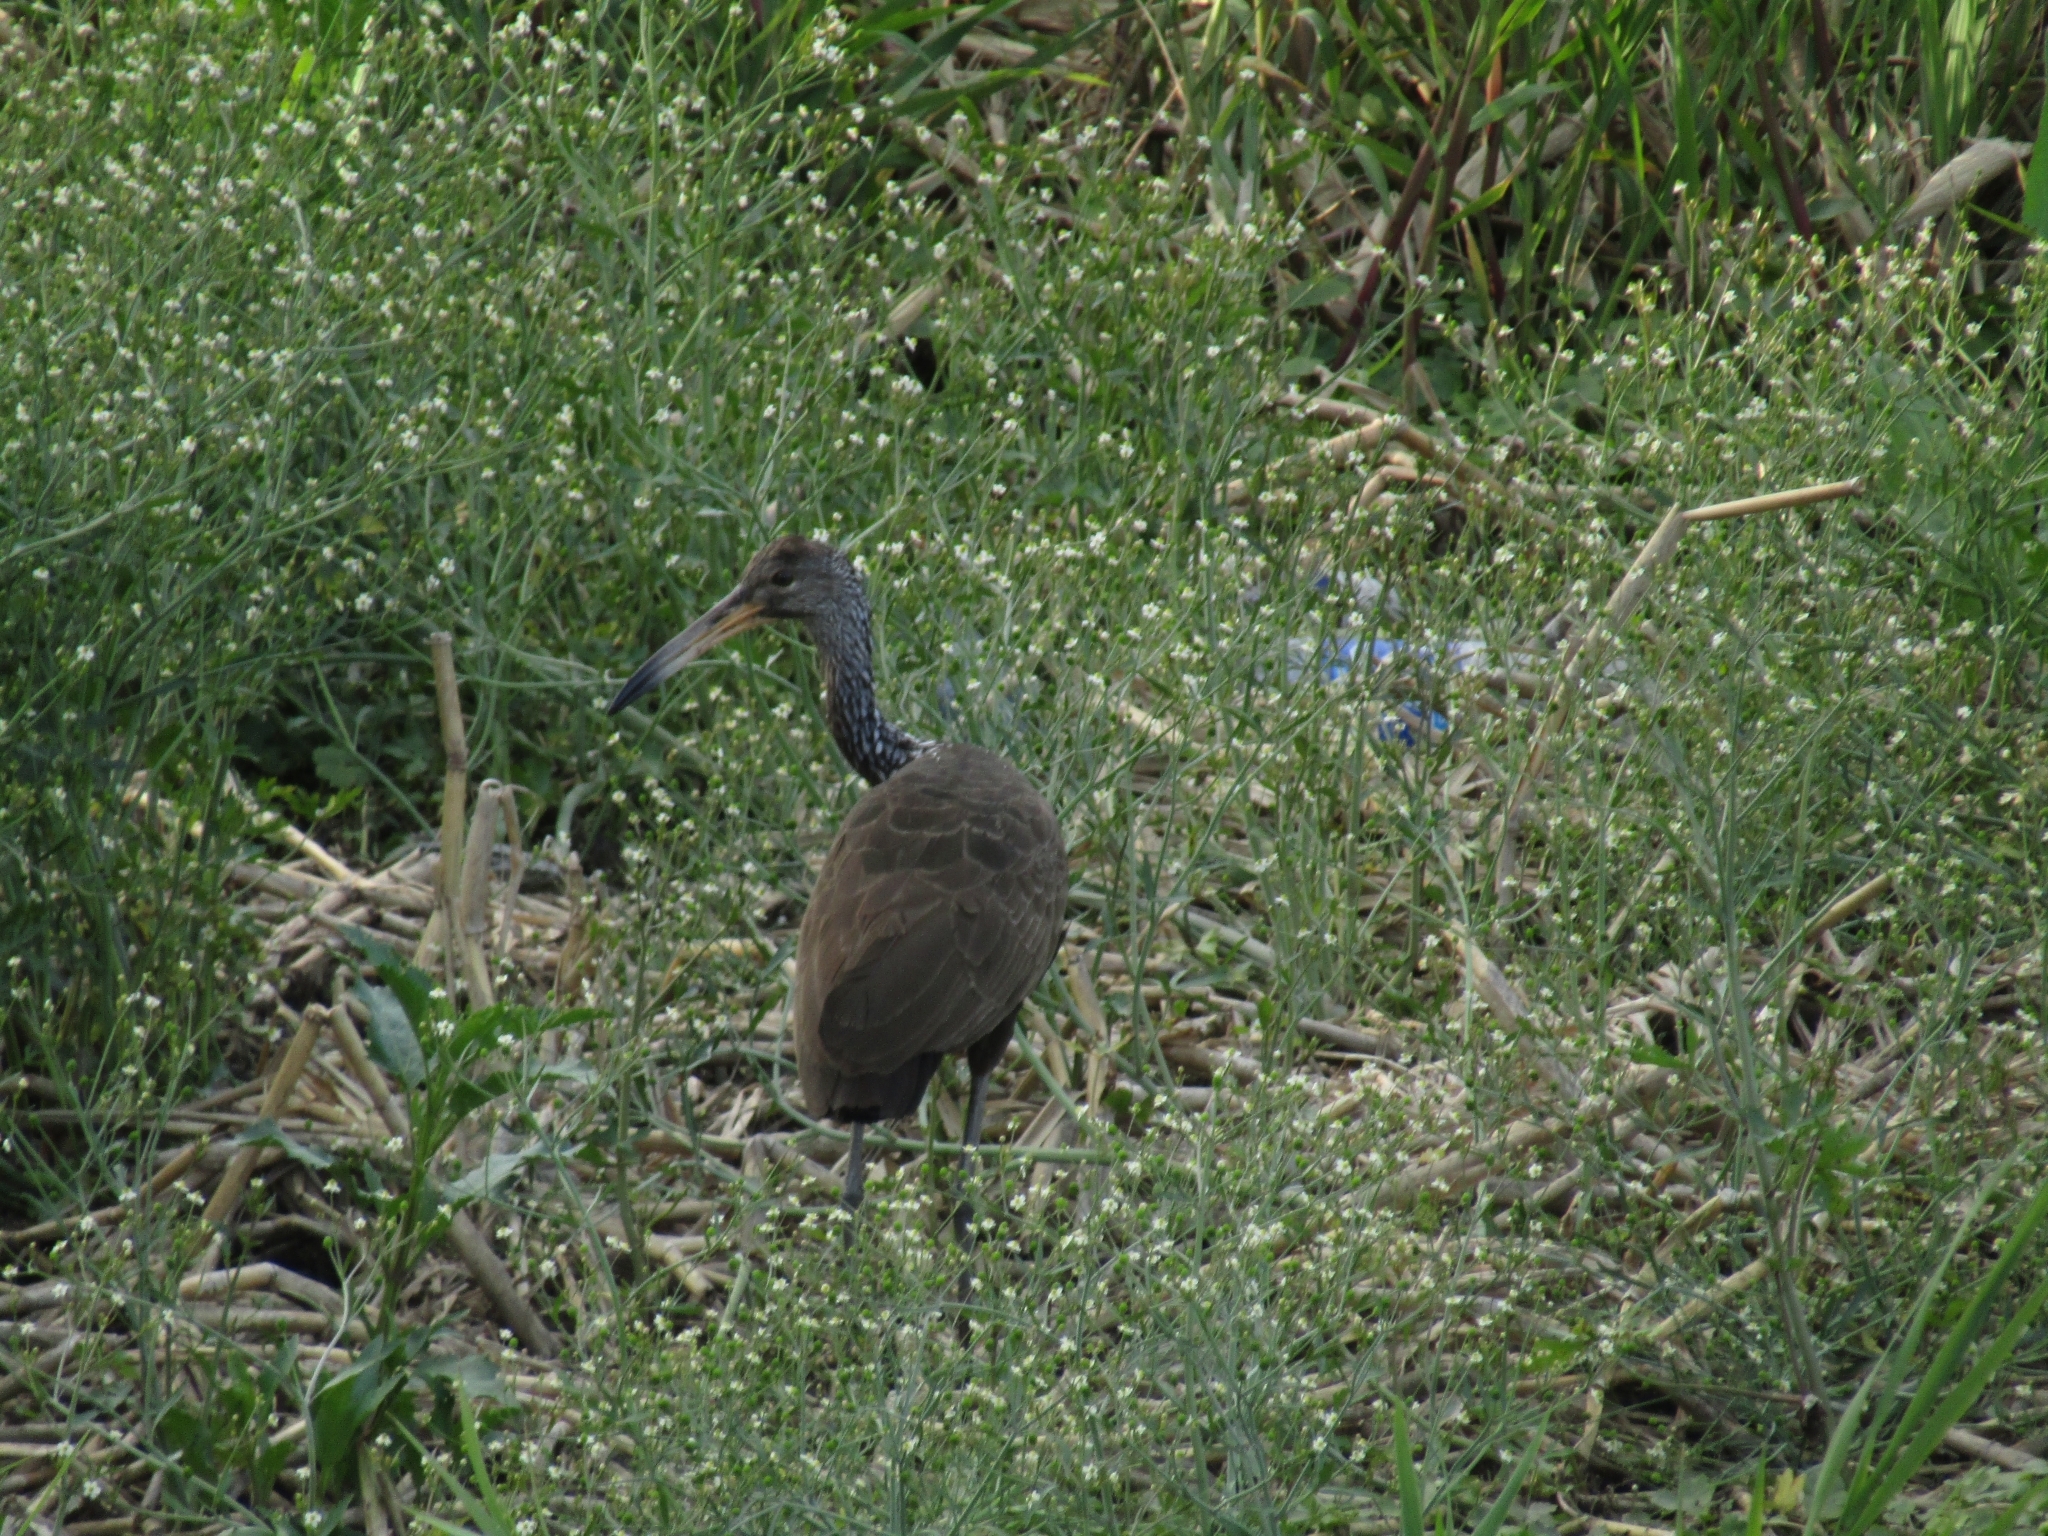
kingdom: Animalia
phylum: Chordata
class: Aves
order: Gruiformes
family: Aramidae
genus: Aramus
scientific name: Aramus guarauna
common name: Limpkin
